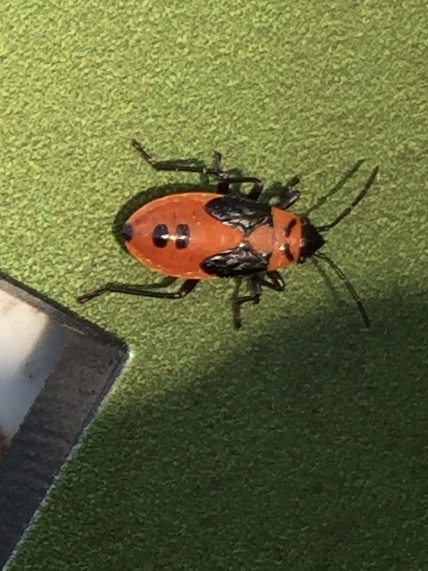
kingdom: Animalia
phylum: Arthropoda
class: Insecta
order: Hemiptera
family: Lygaeidae
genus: Lygaeus
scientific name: Lygaeus turcicus
